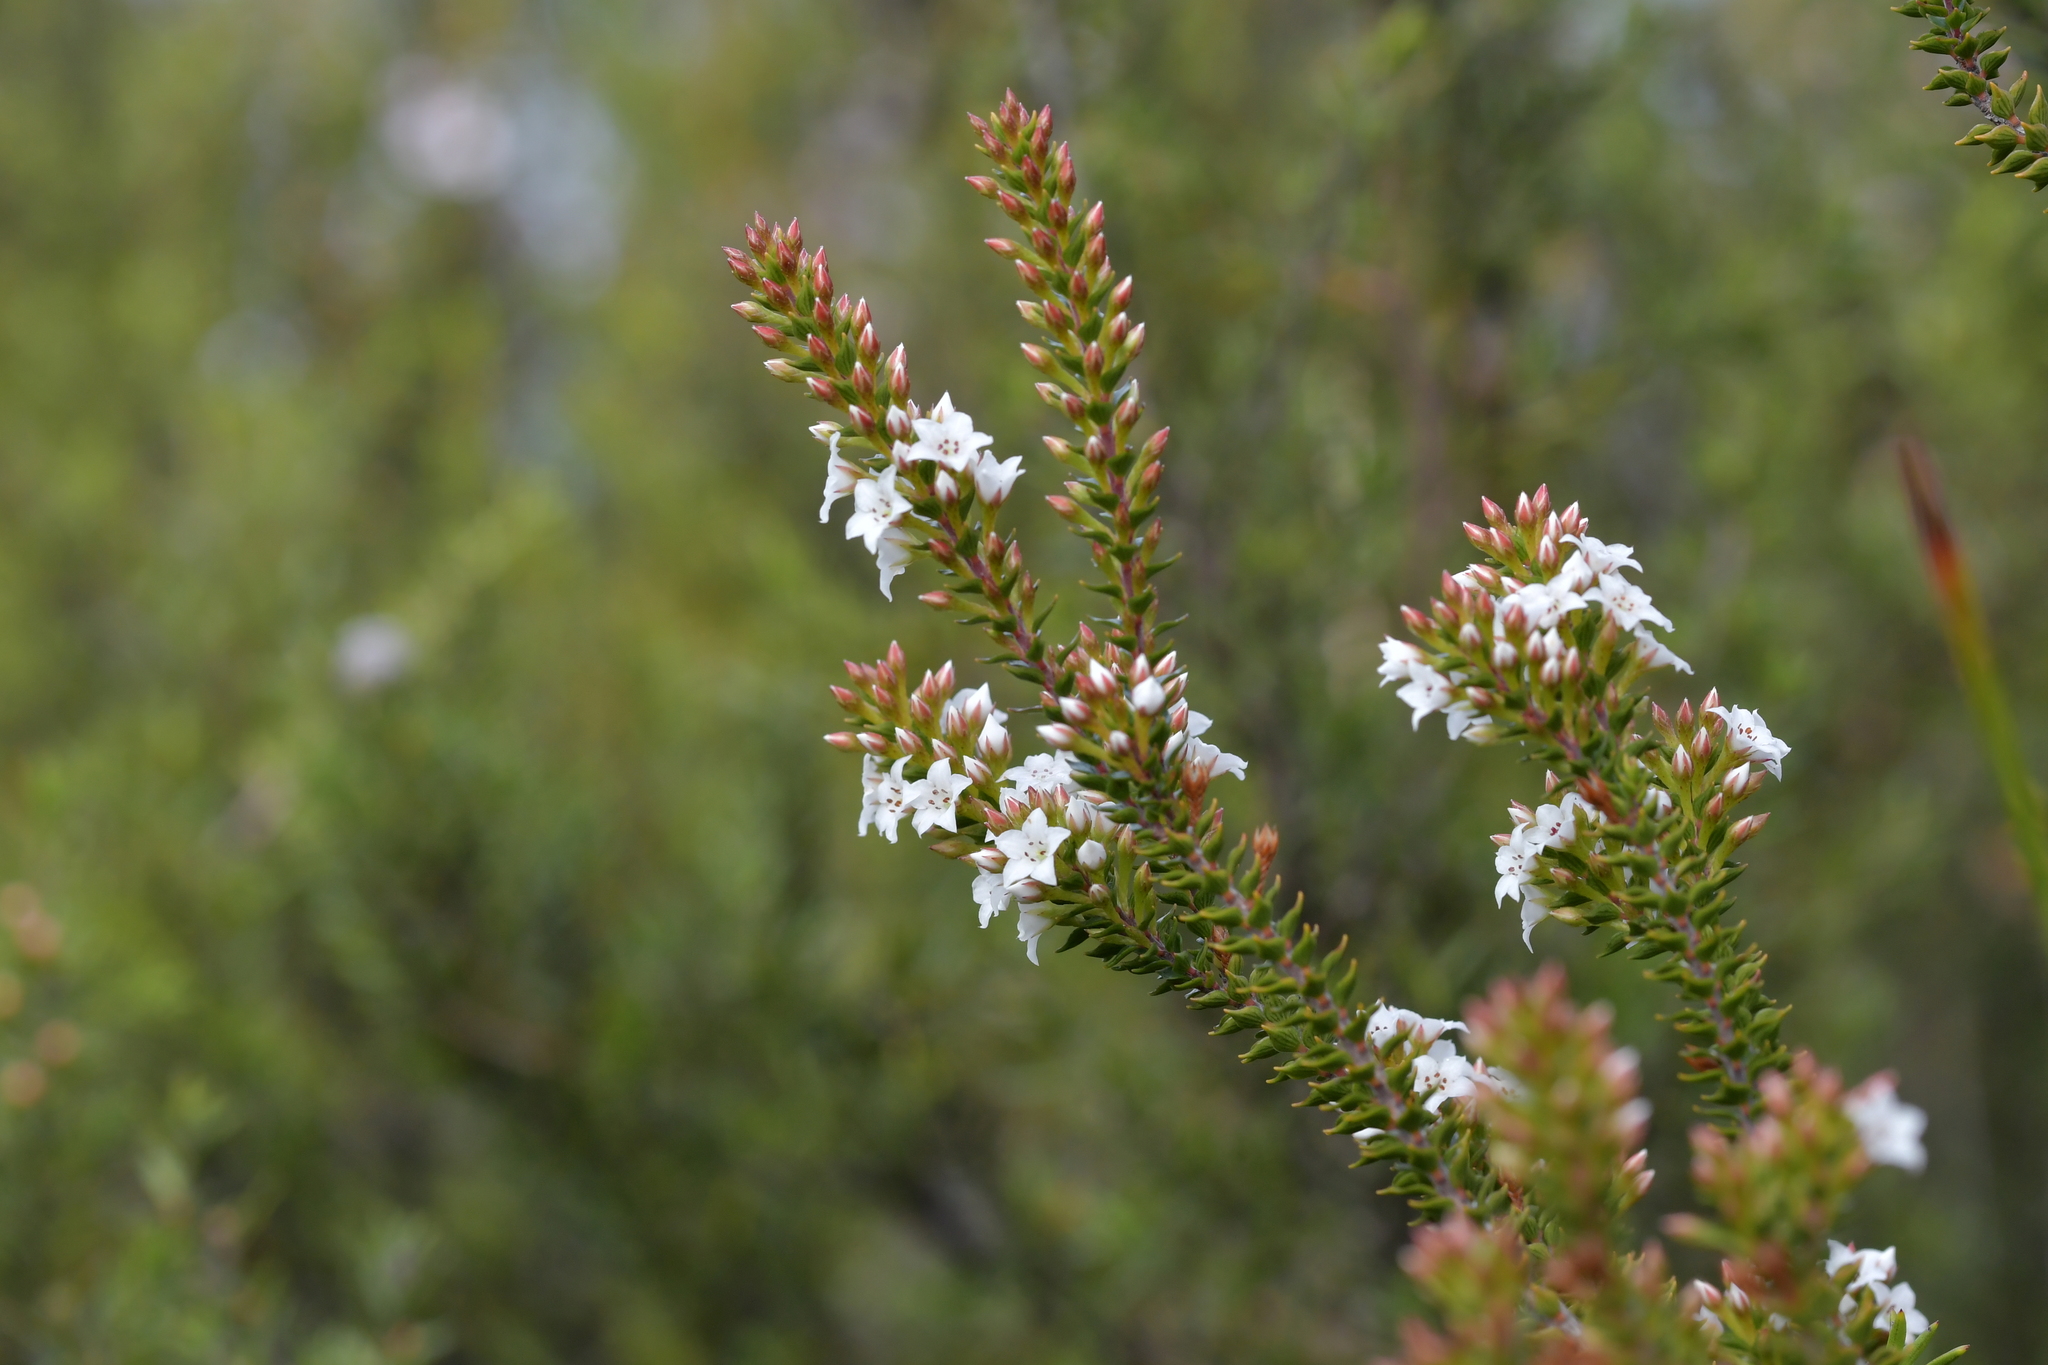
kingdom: Plantae
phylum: Tracheophyta
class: Magnoliopsida
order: Ericales
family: Ericaceae
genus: Epacris
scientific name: Epacris pauciflora
